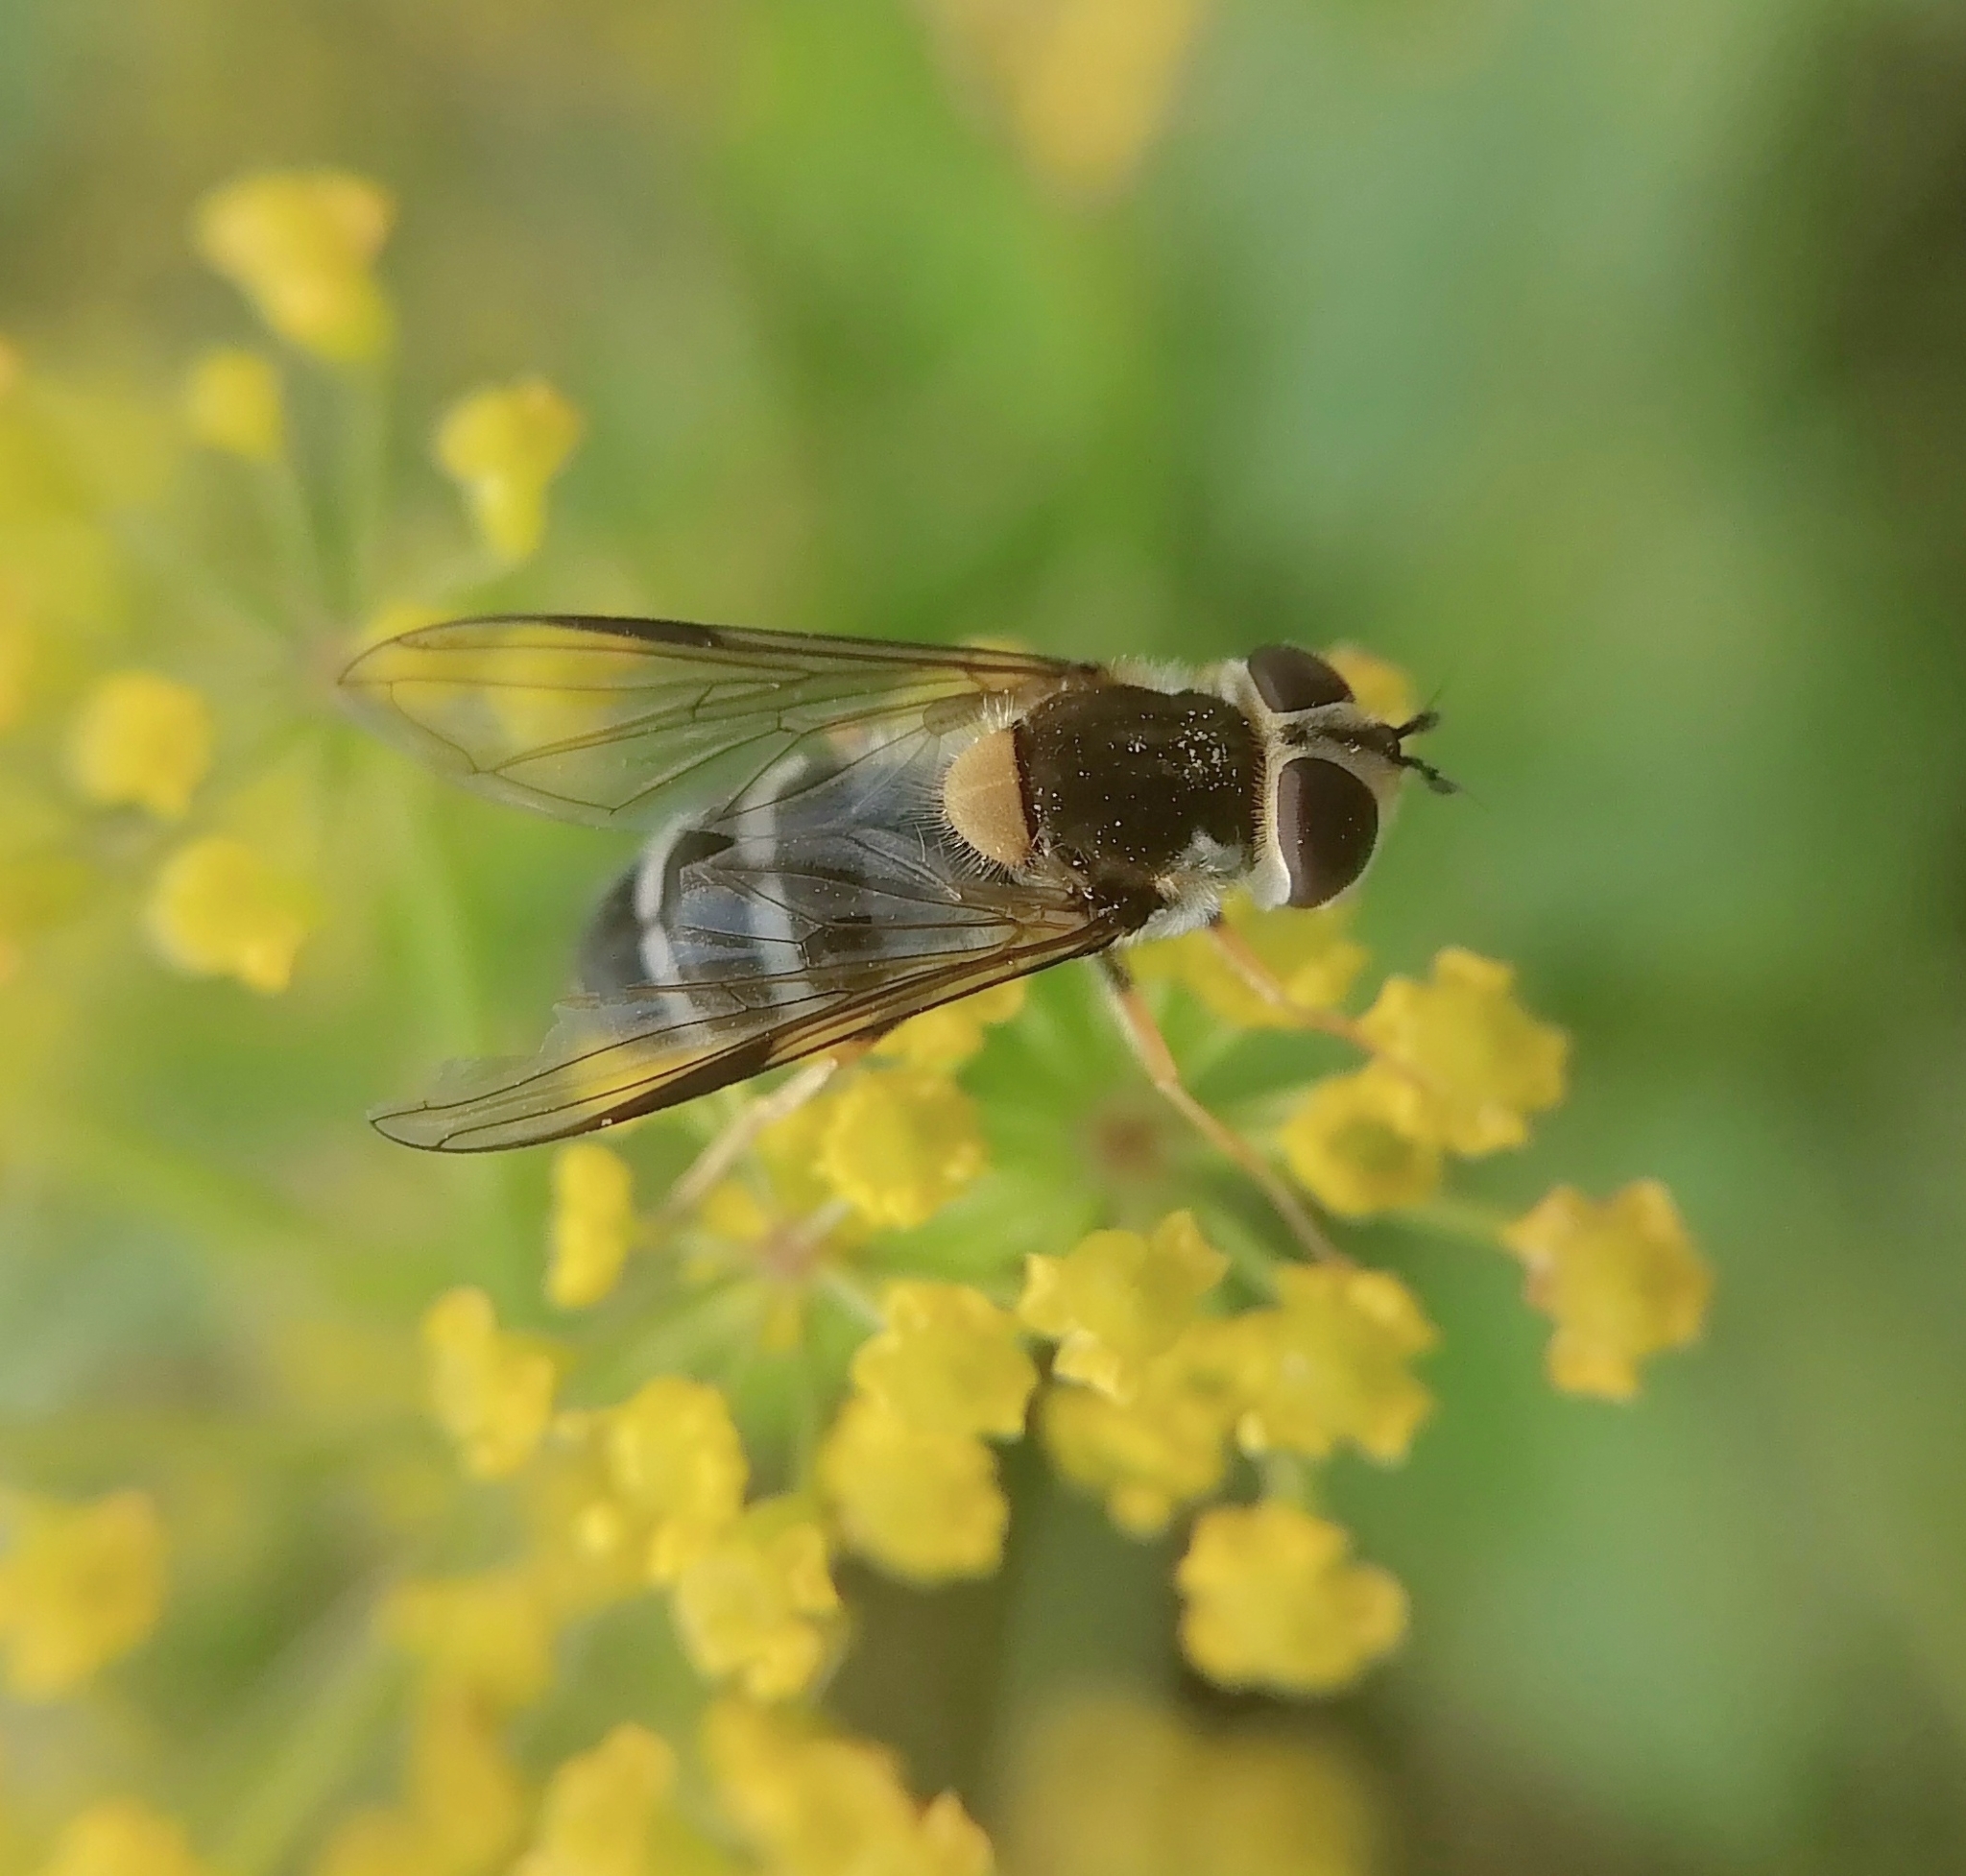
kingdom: Animalia
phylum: Arthropoda
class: Insecta
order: Diptera
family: Syrphidae
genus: Leucozona
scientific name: Leucozona glaucia
